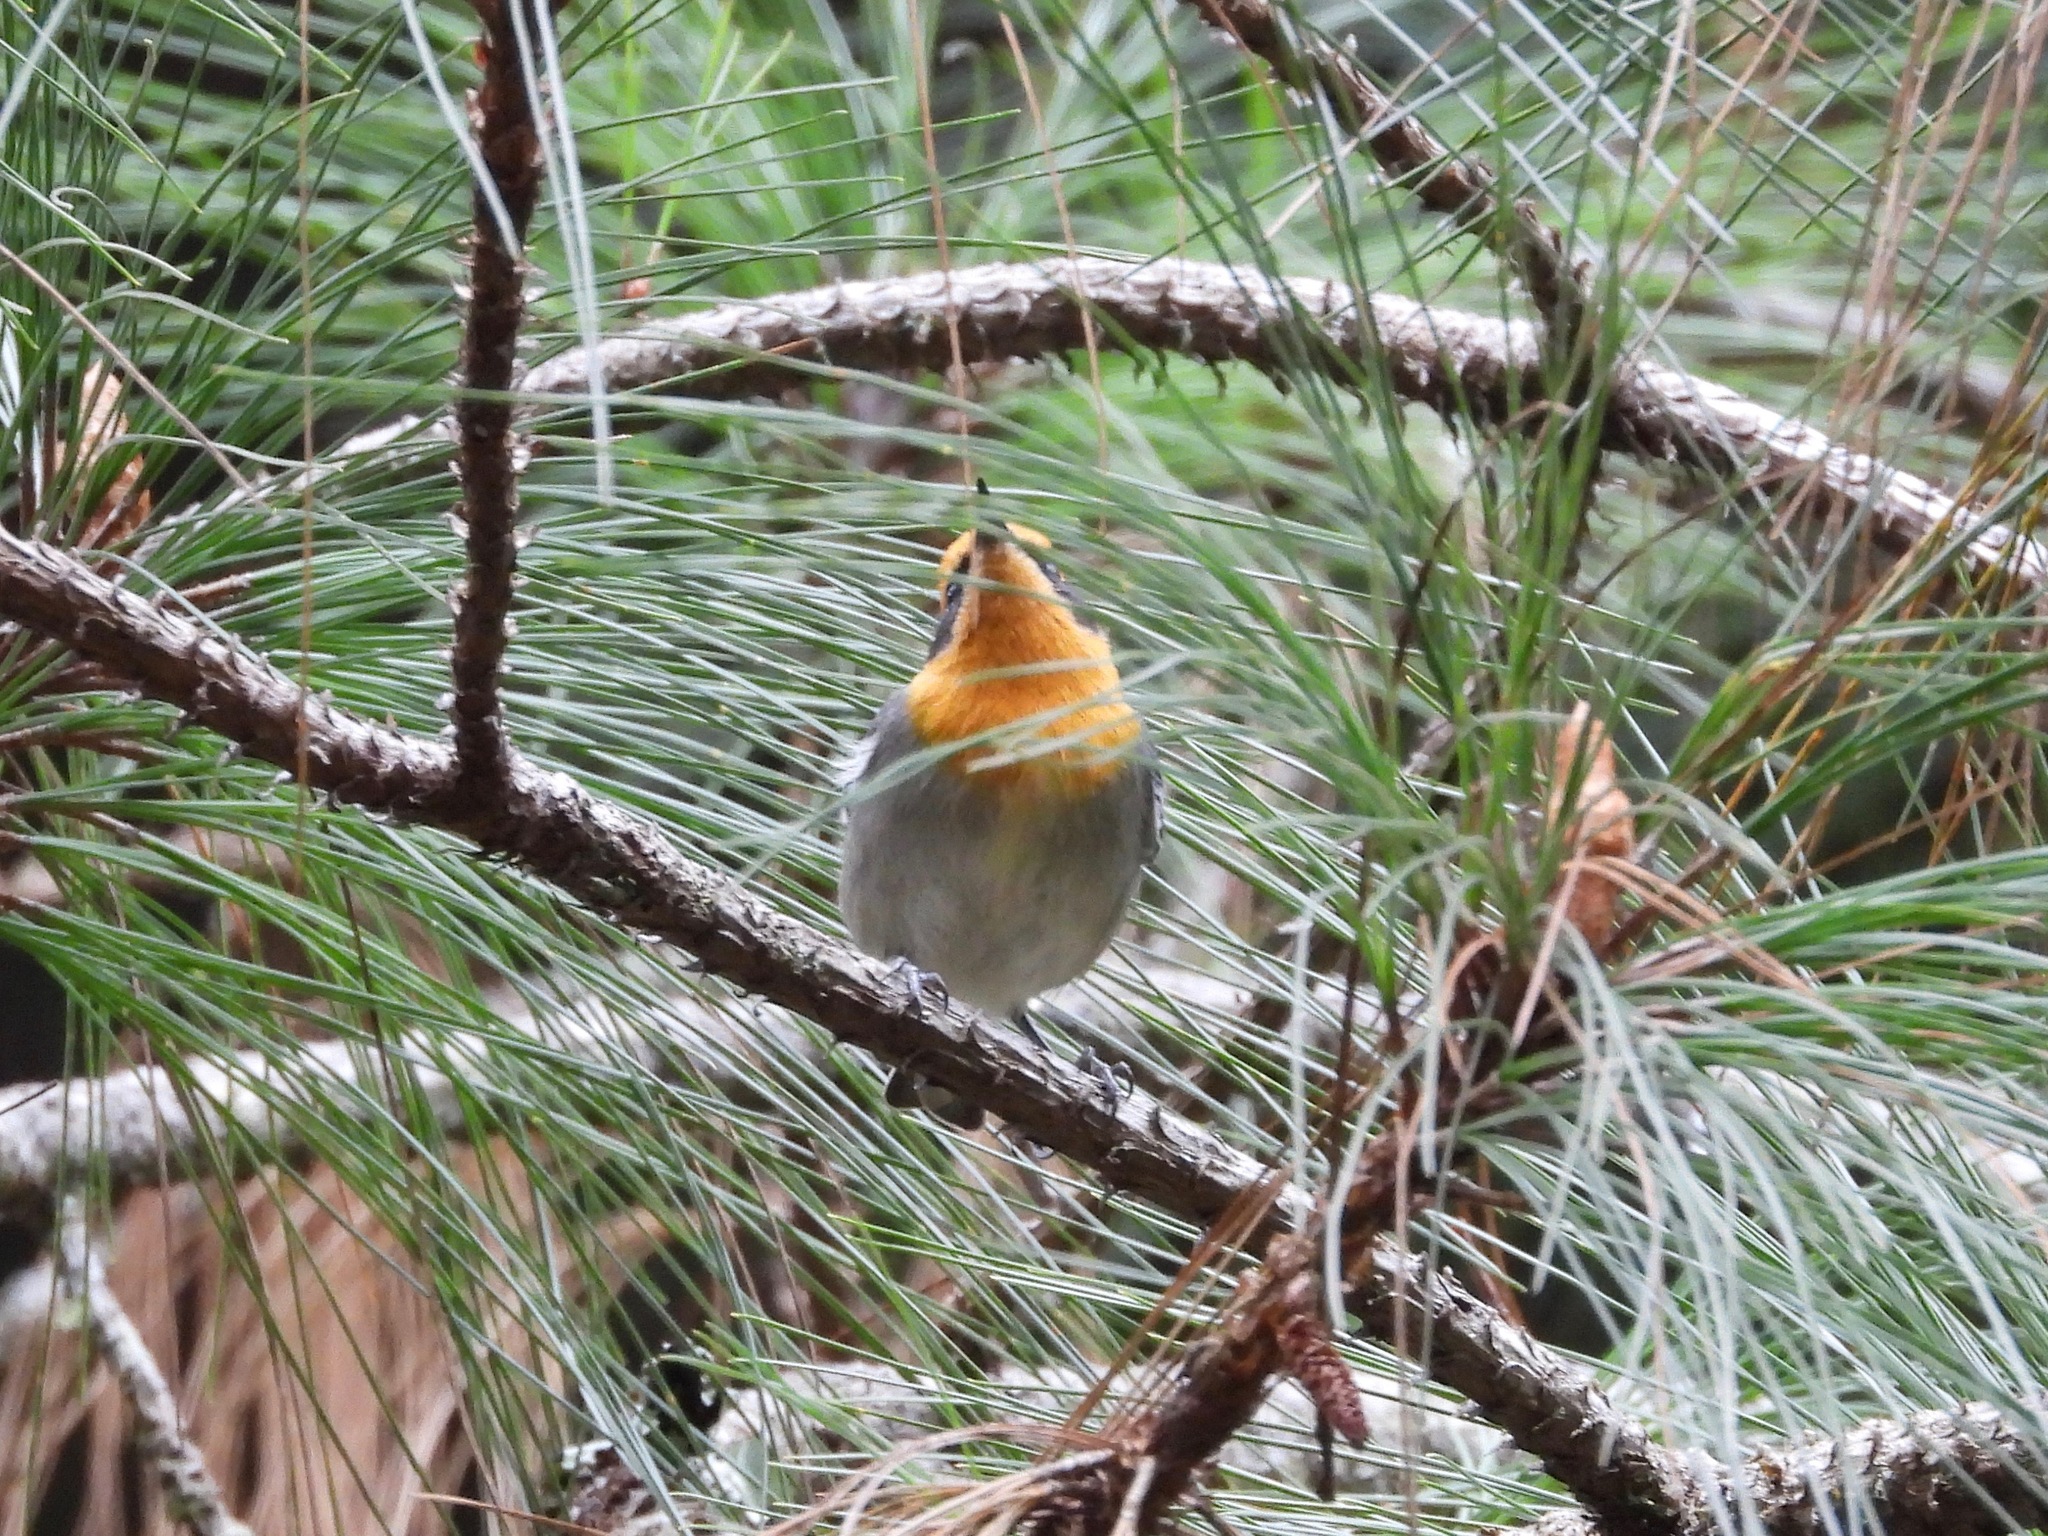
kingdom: Animalia
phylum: Chordata
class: Aves
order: Passeriformes
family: Peucedramidae
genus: Peucedramus
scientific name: Peucedramus taeniatus
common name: Olive warbler
